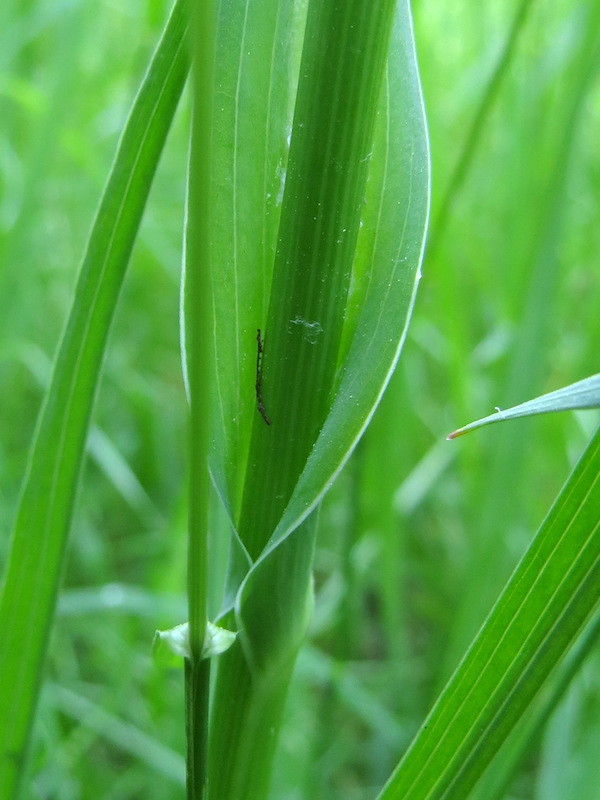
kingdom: Plantae
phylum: Tracheophyta
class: Magnoliopsida
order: Asterales
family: Asteraceae
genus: Tragopogon
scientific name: Tragopogon pratensis
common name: Goat's-beard
